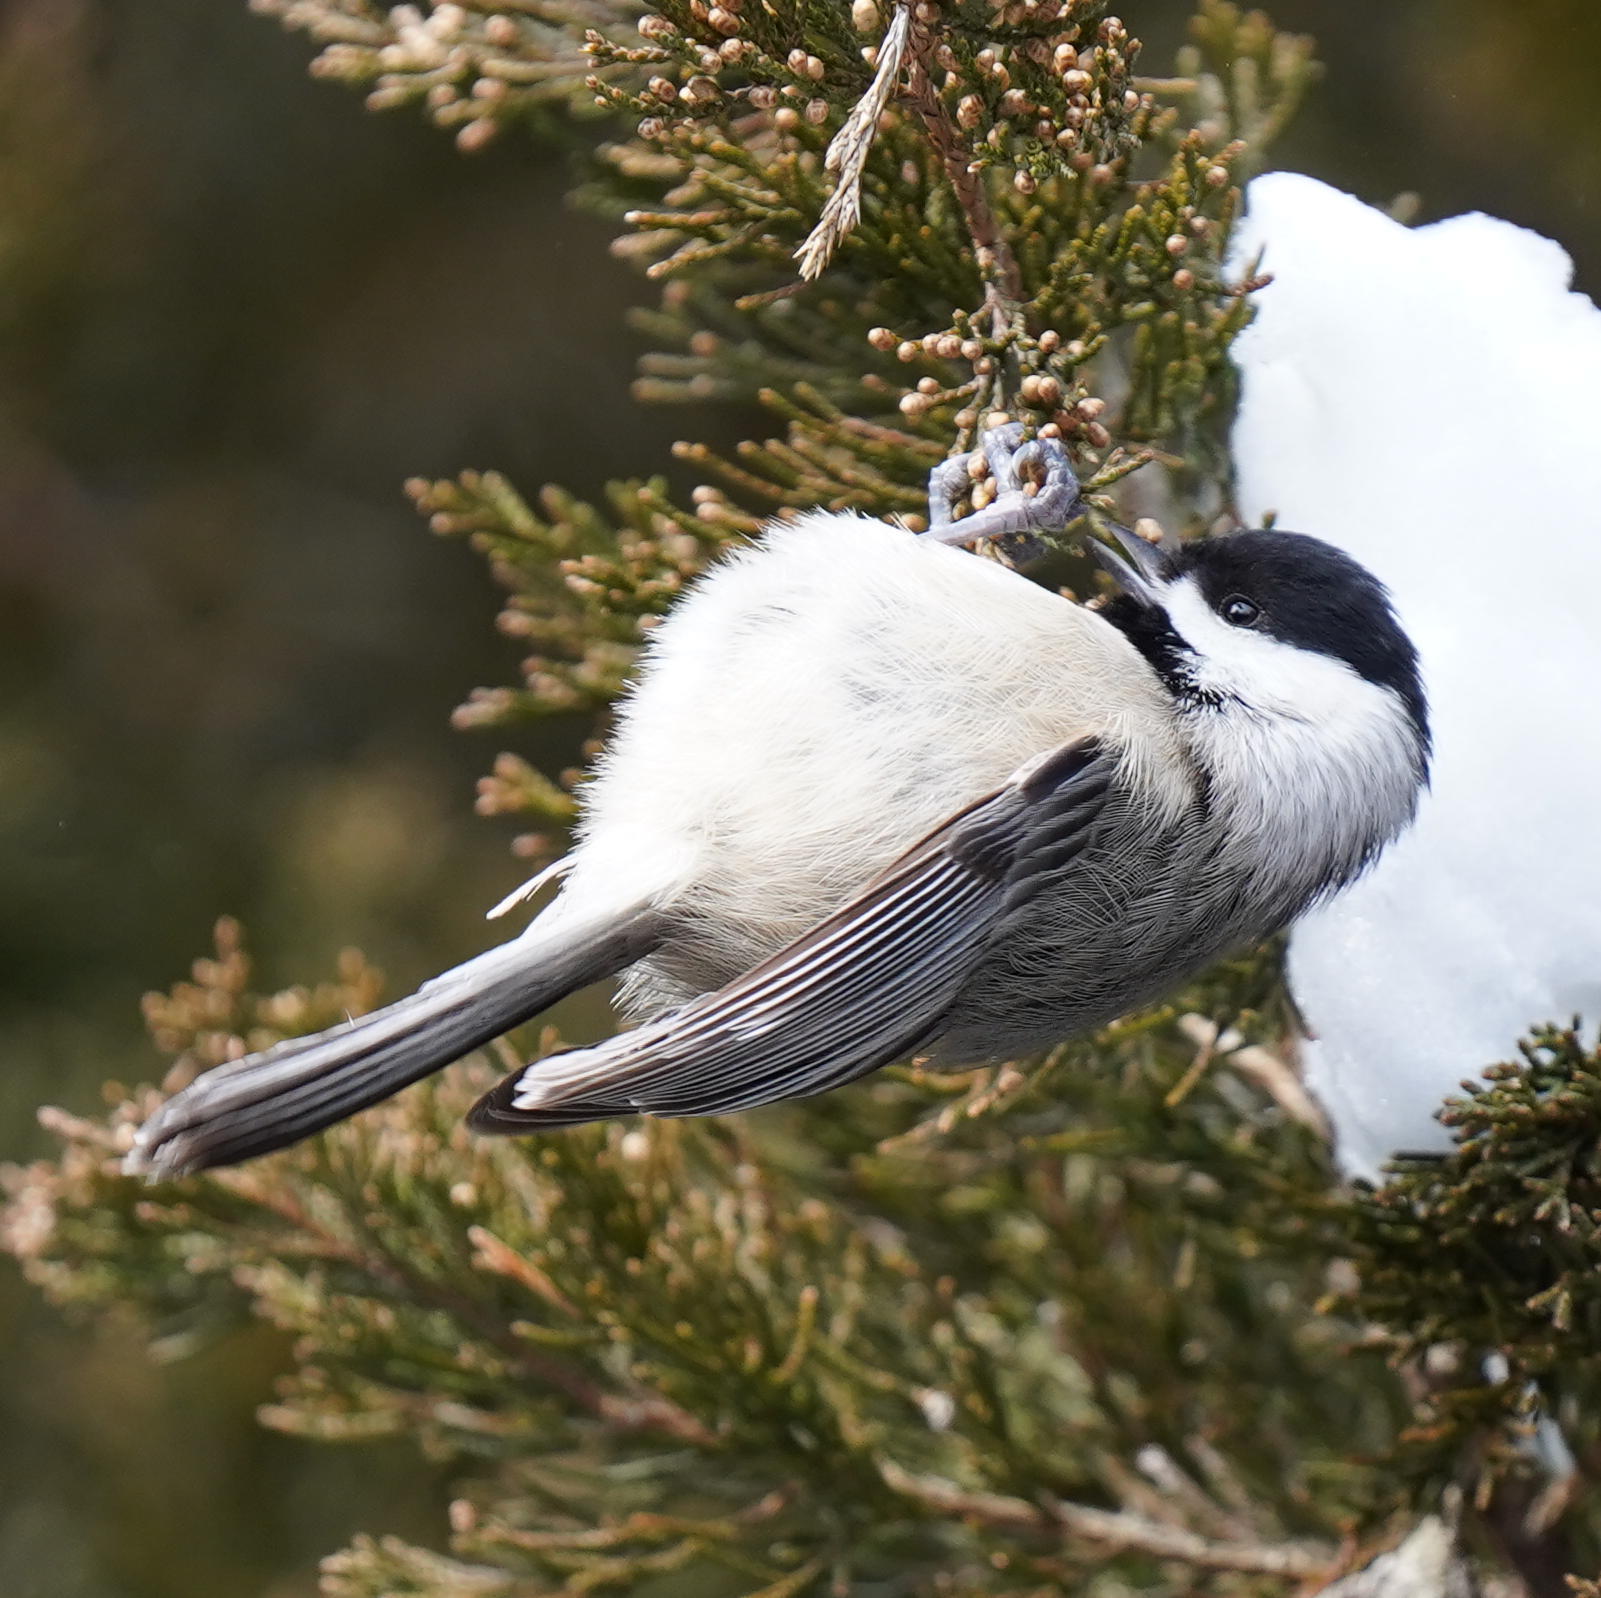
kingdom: Animalia
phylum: Chordata
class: Aves
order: Passeriformes
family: Paridae
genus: Poecile
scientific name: Poecile carolinensis
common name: Carolina chickadee
